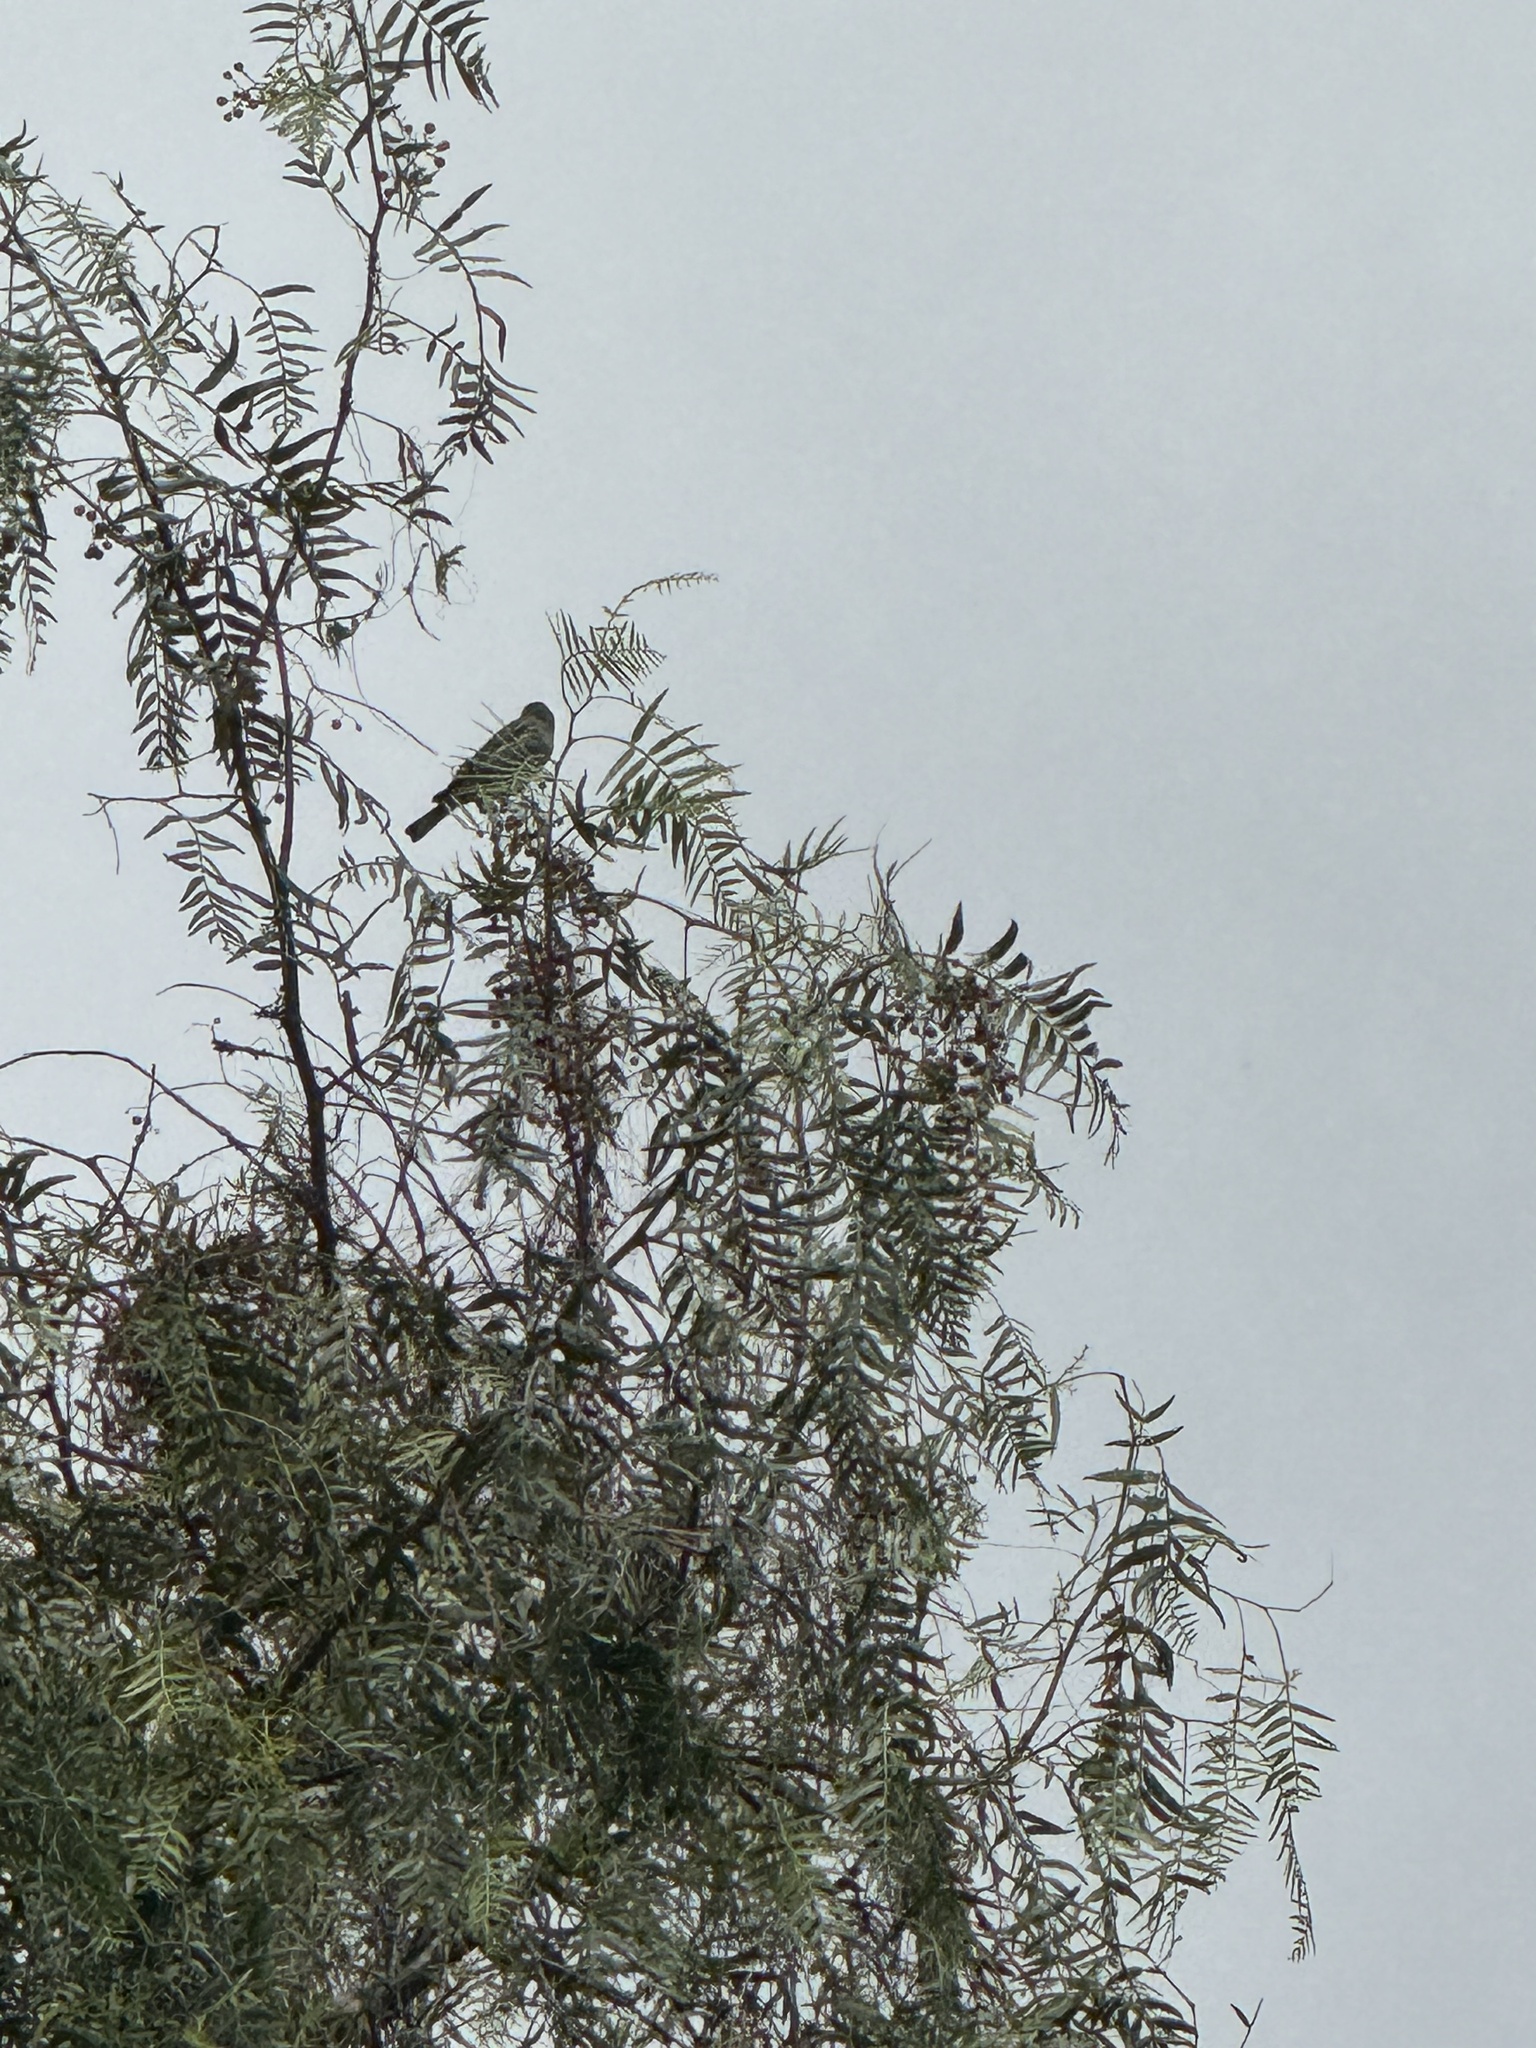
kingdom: Animalia
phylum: Chordata
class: Aves
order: Passeriformes
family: Parulidae
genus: Setophaga
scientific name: Setophaga coronata
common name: Myrtle warbler
